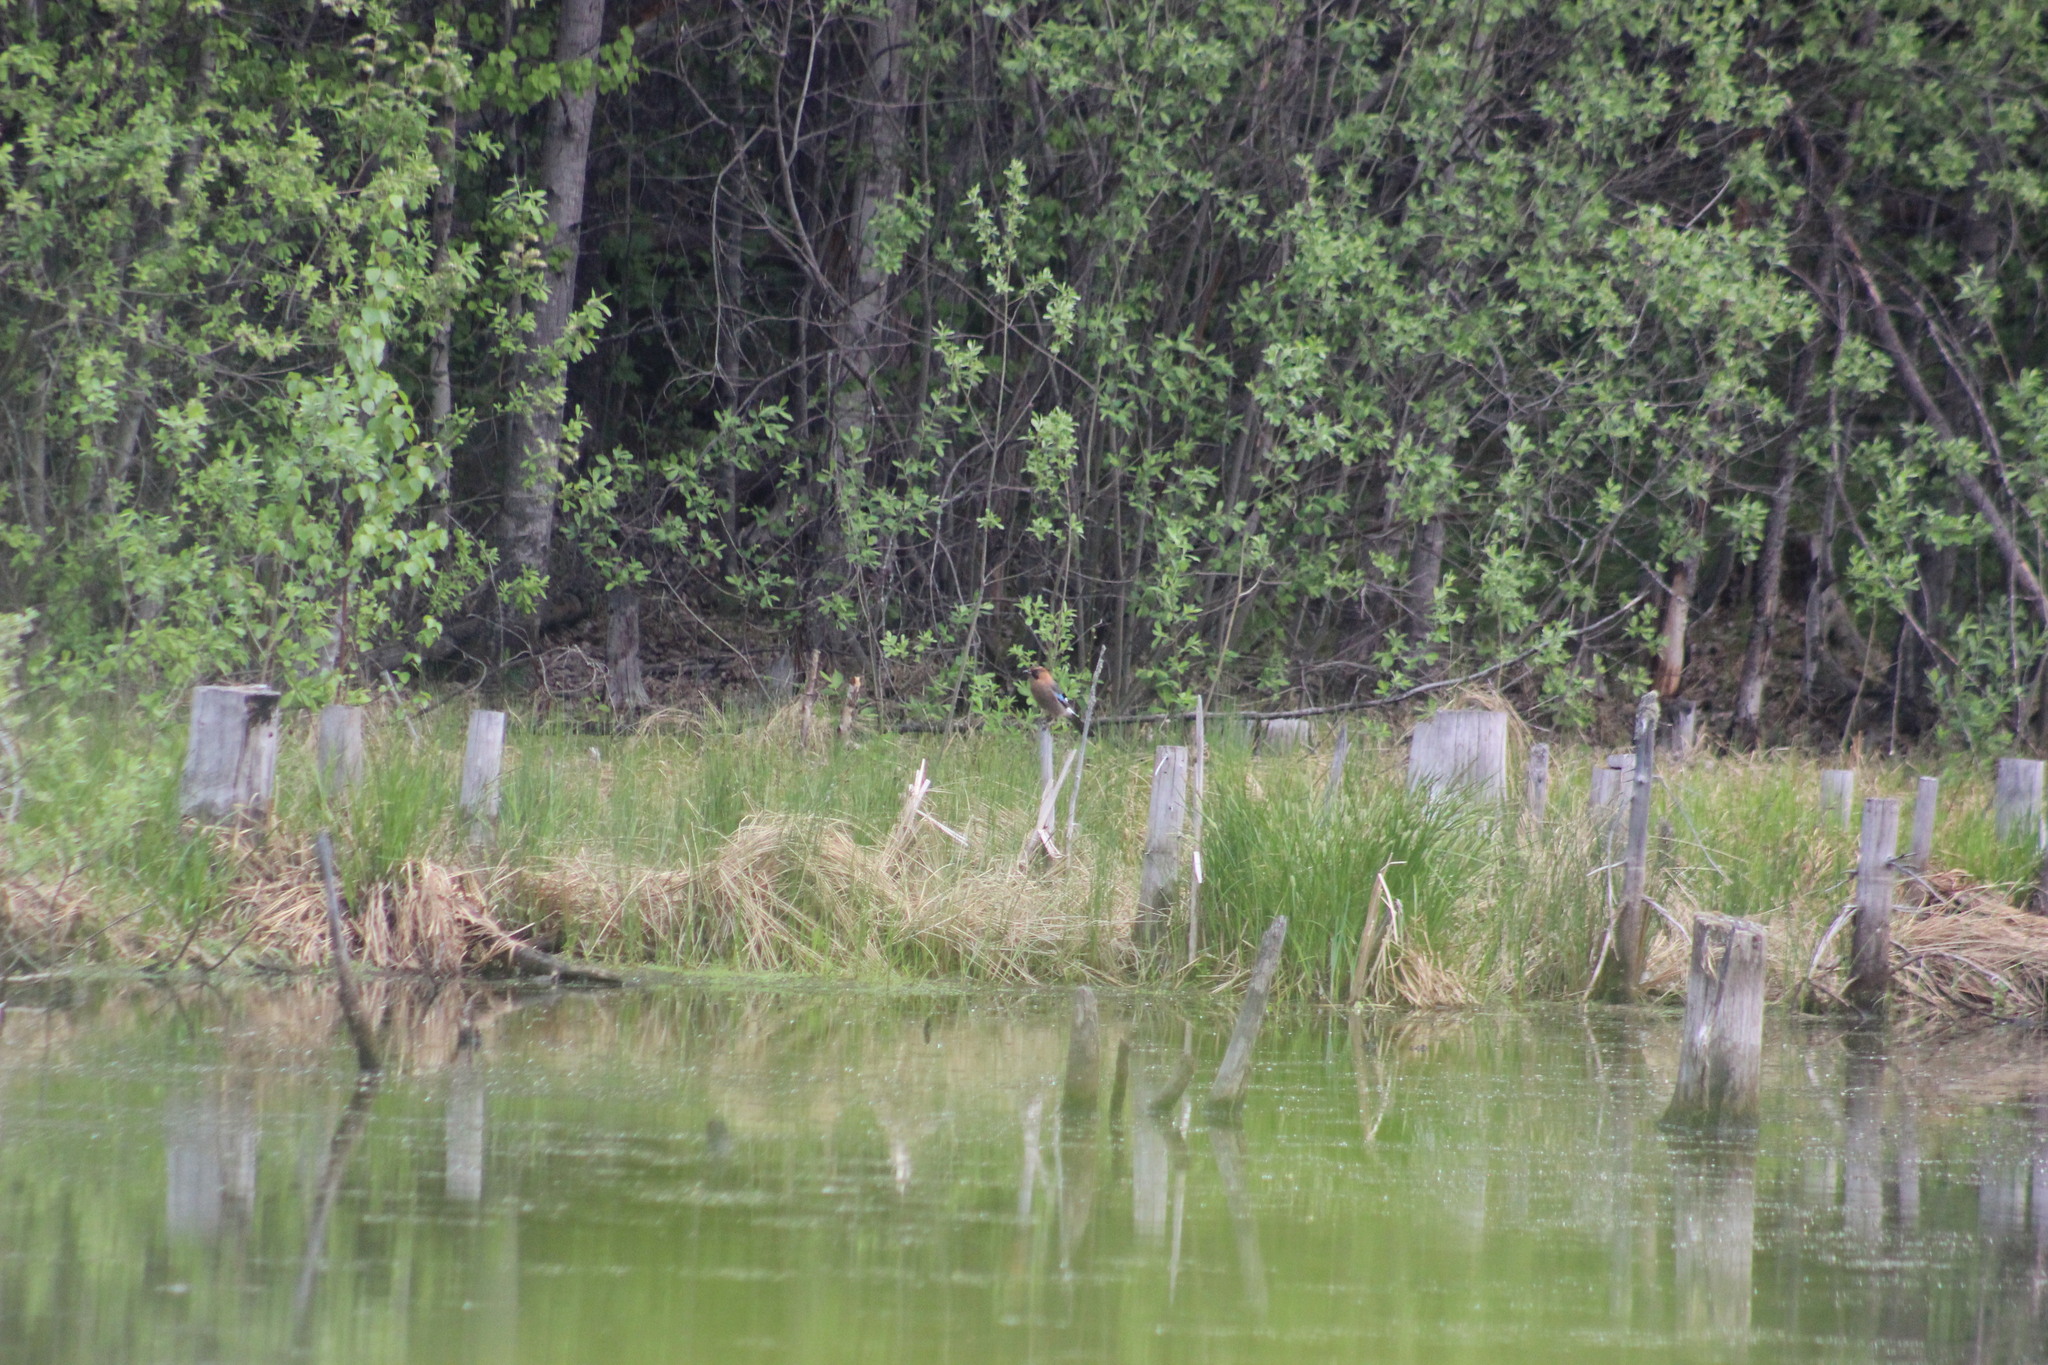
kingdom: Animalia
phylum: Chordata
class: Aves
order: Passeriformes
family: Corvidae
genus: Garrulus
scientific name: Garrulus glandarius
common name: Eurasian jay
